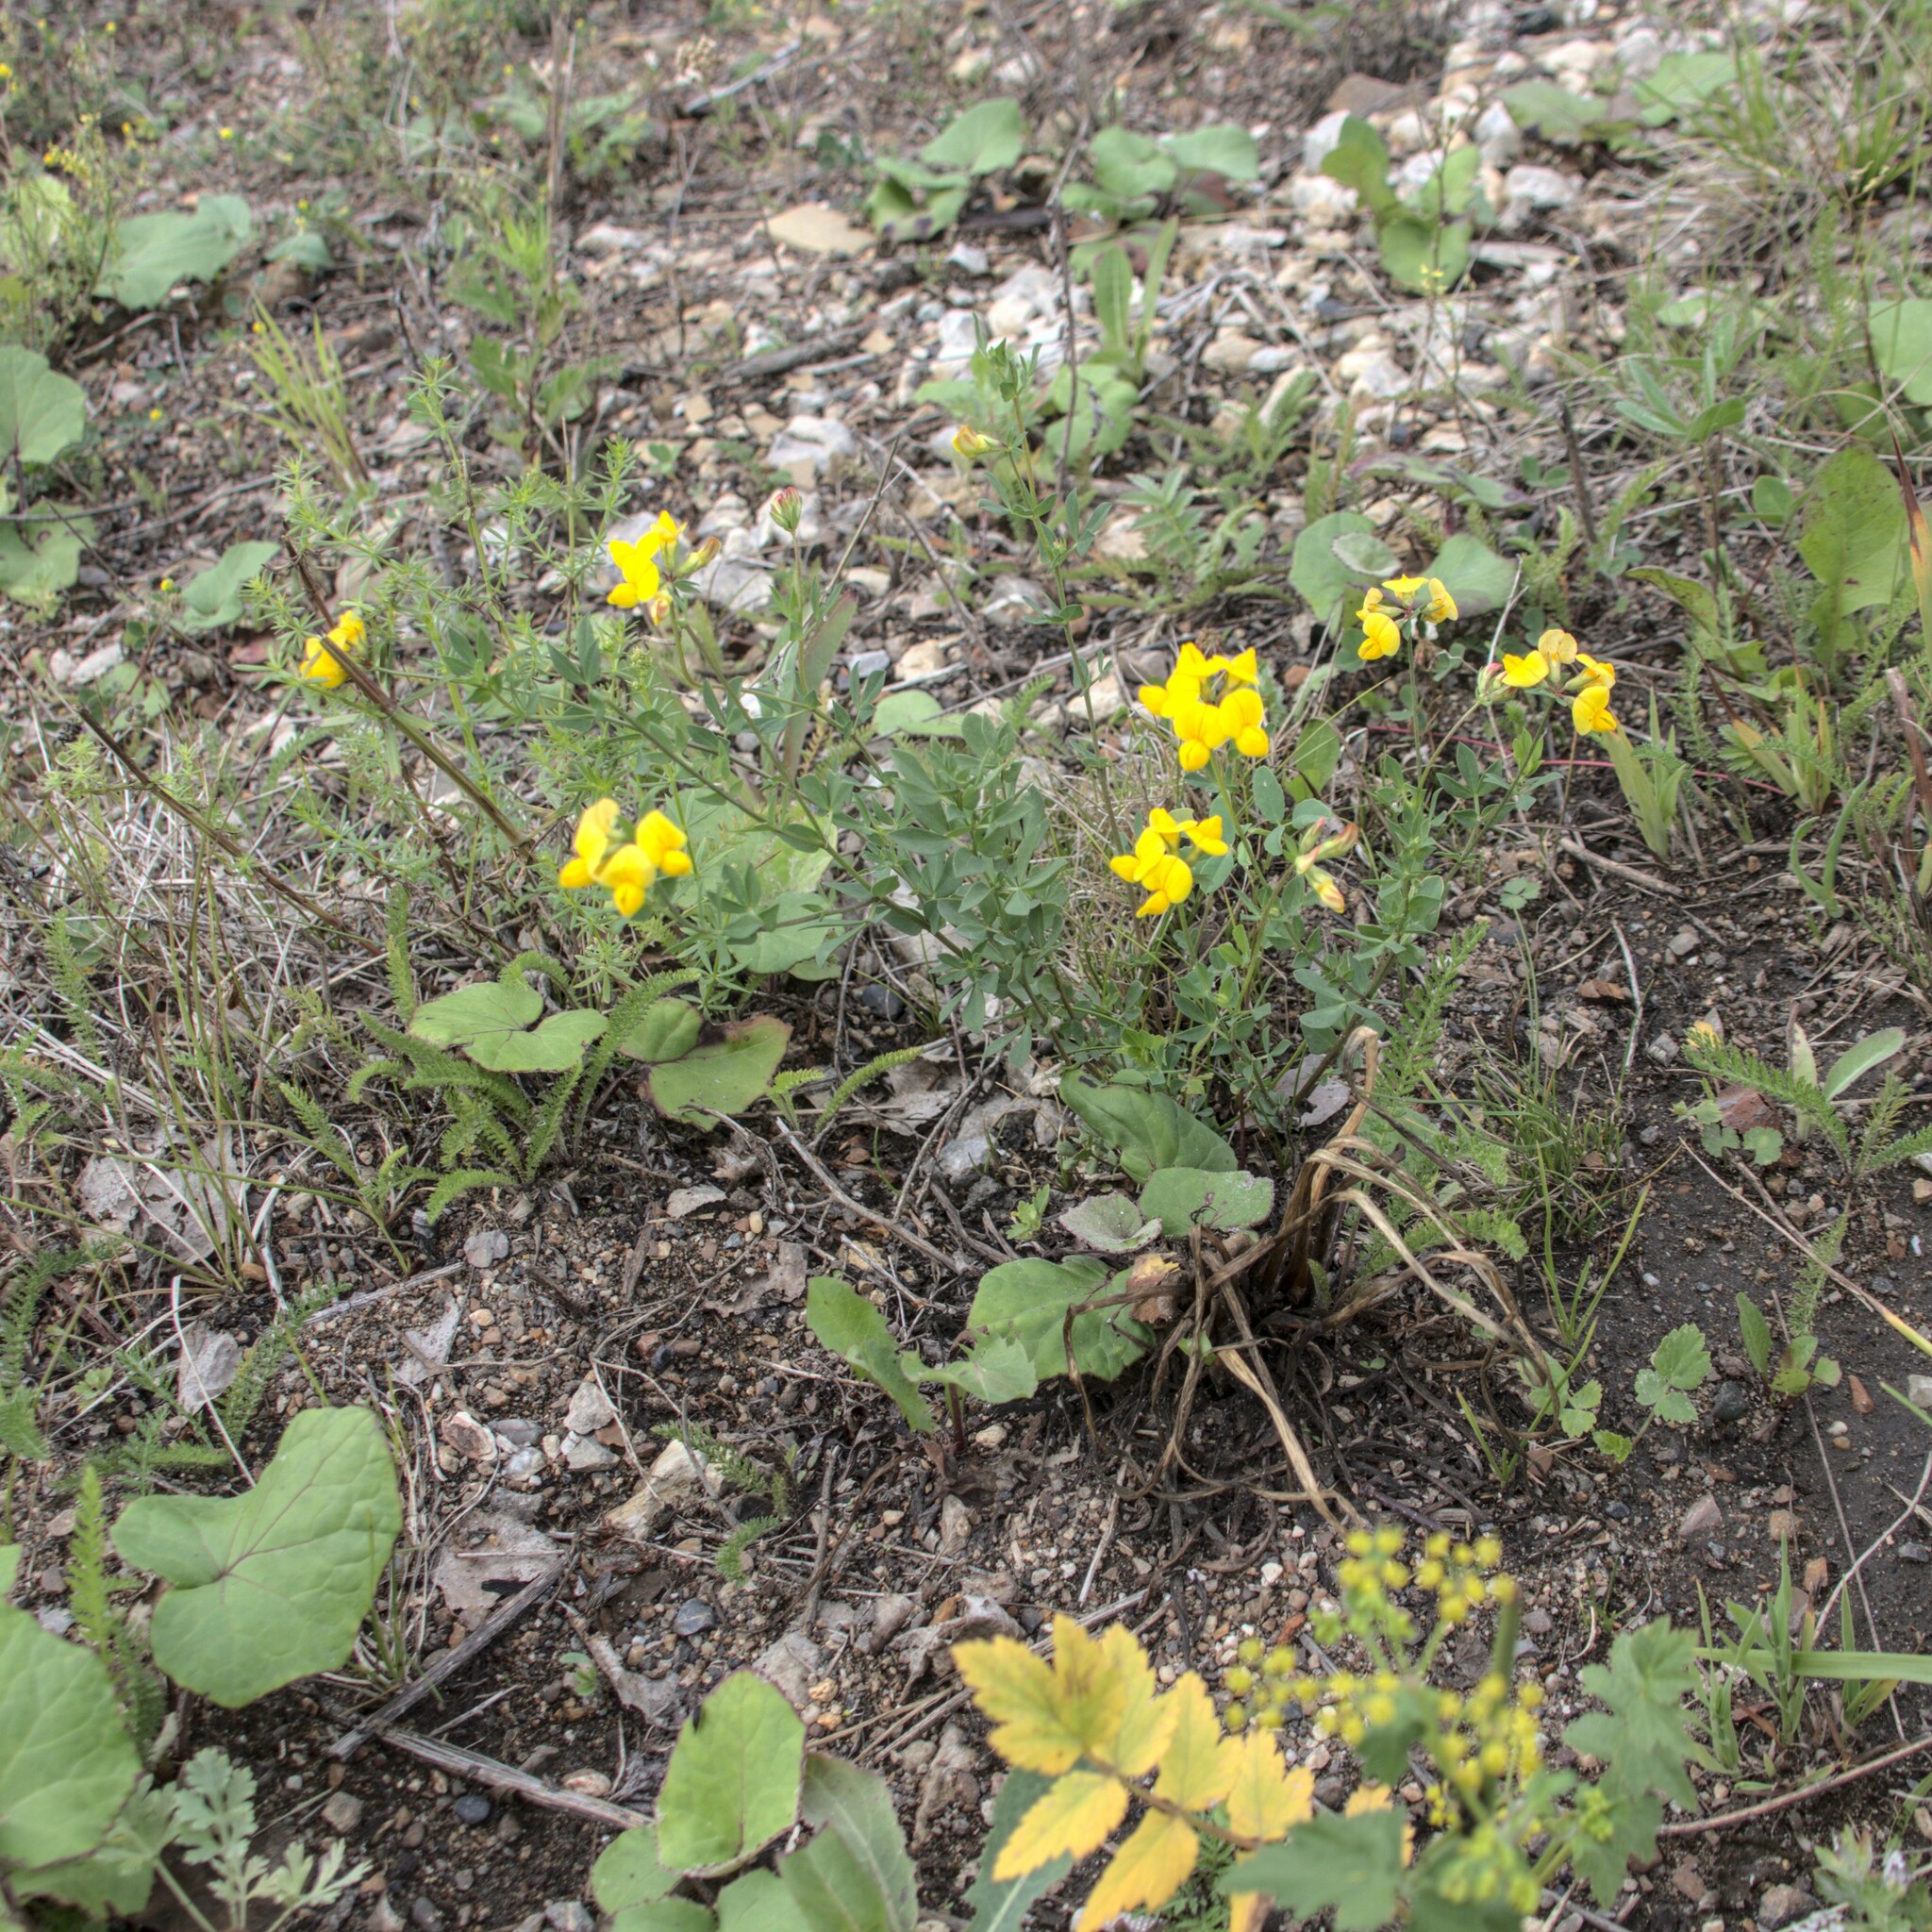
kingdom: Plantae
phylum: Tracheophyta
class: Magnoliopsida
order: Fabales
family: Fabaceae
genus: Lotus
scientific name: Lotus corniculatus
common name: Common bird's-foot-trefoil
